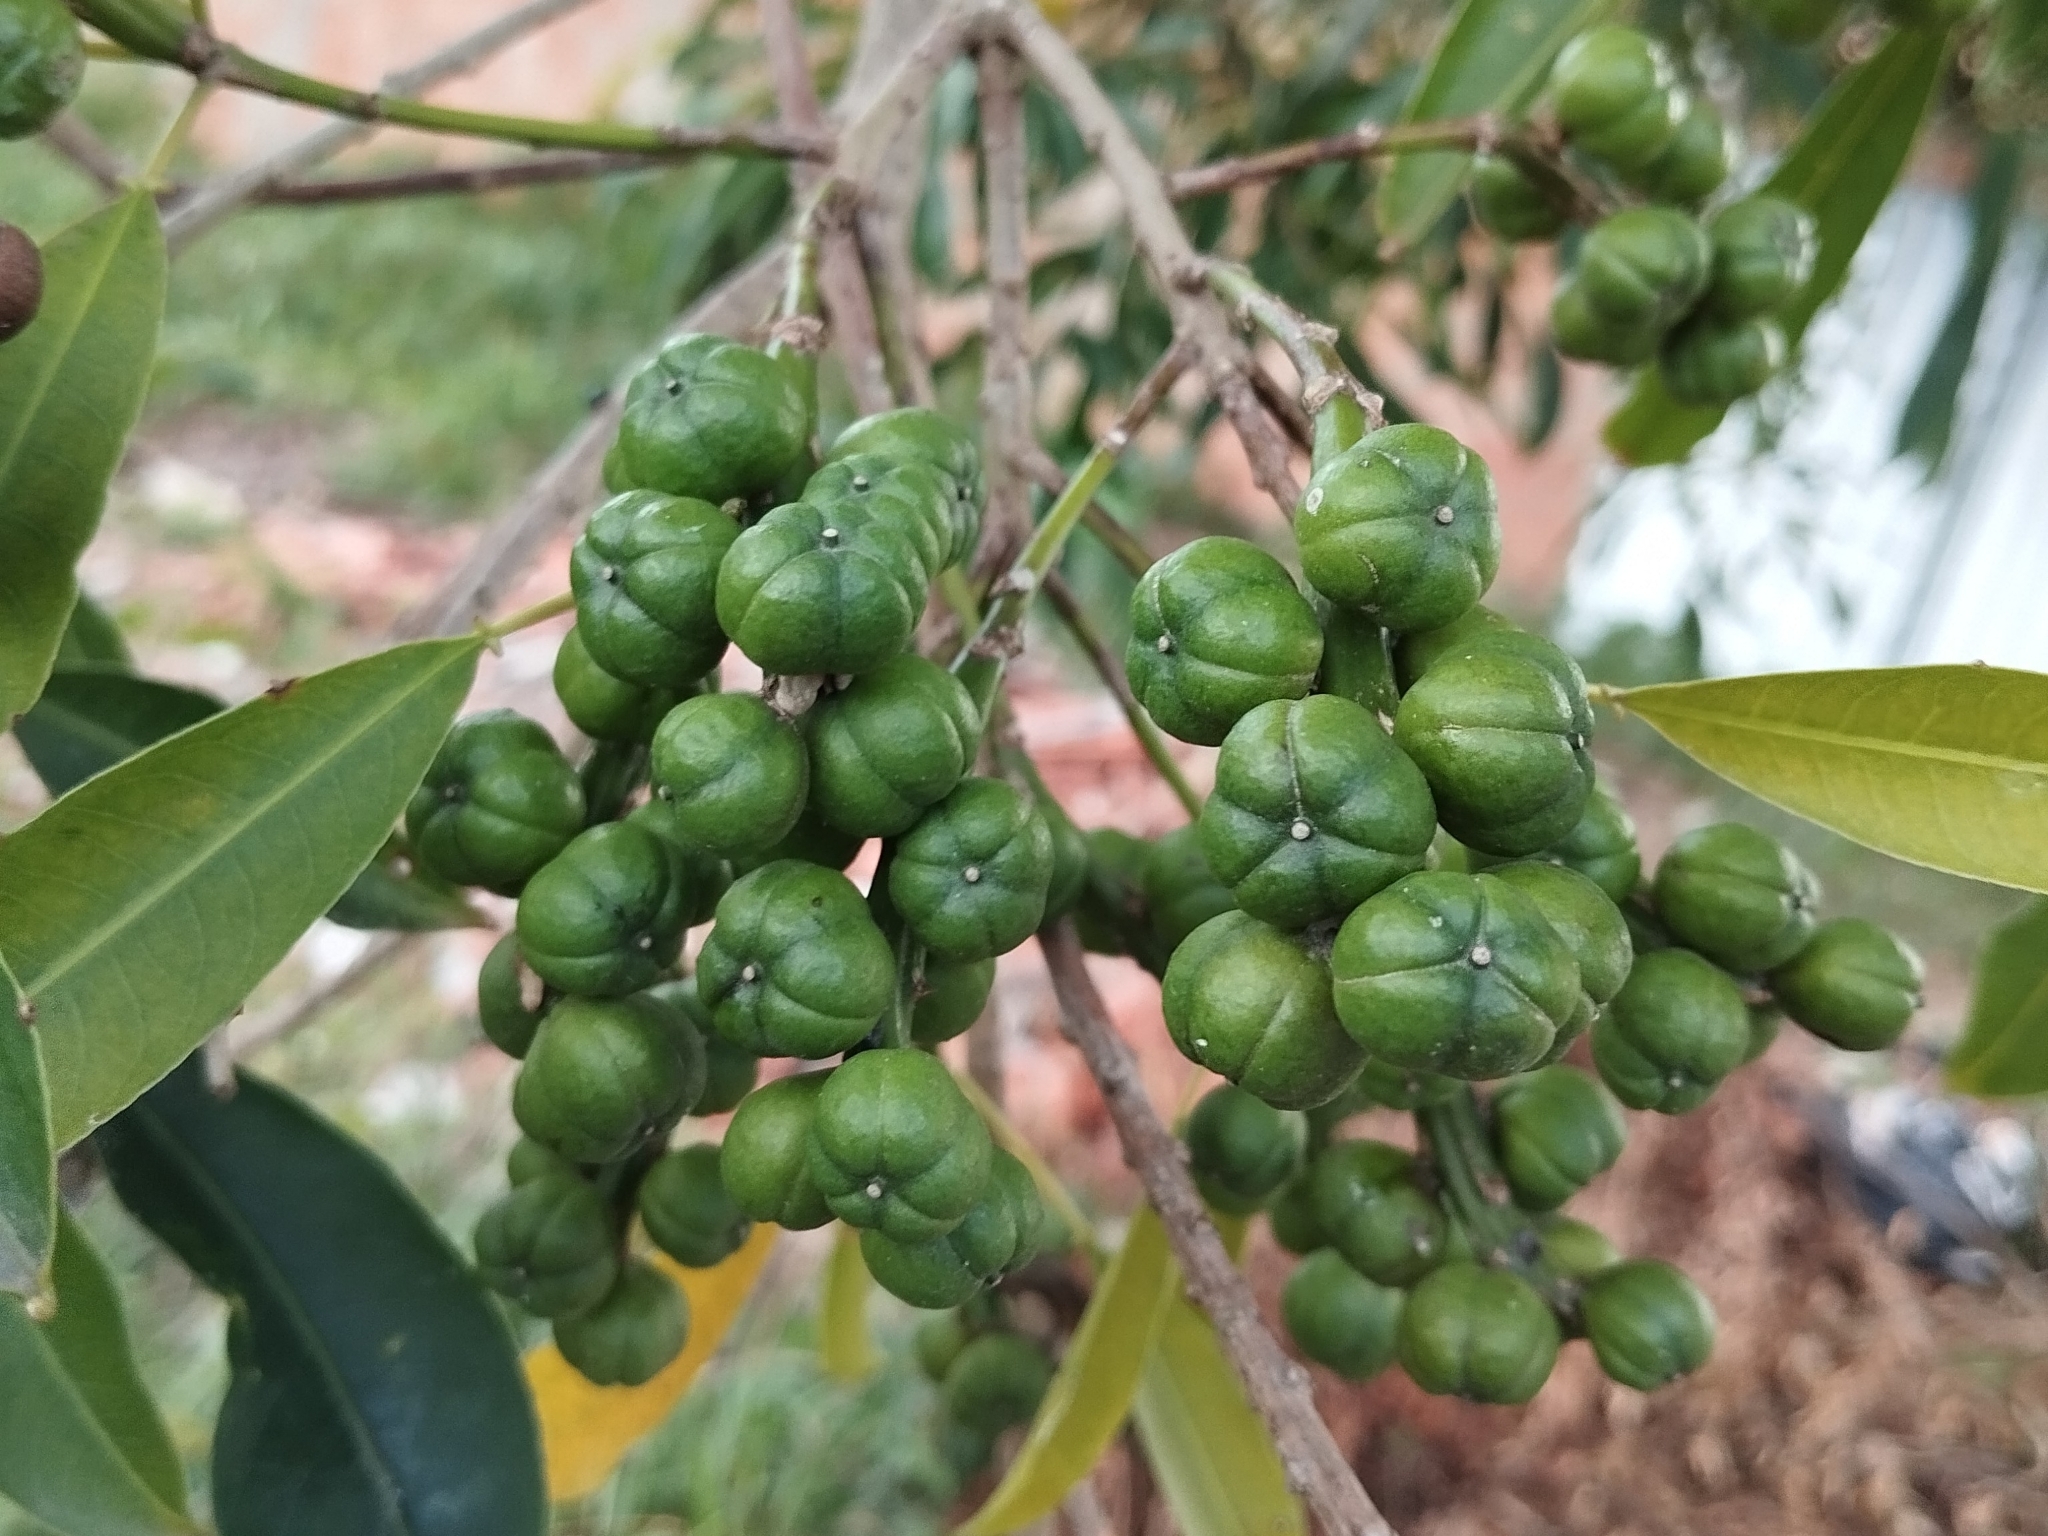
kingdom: Plantae
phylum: Tracheophyta
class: Magnoliopsida
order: Malpighiales
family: Euphorbiaceae
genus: Sapium
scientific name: Sapium glandulosum
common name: Milktree
